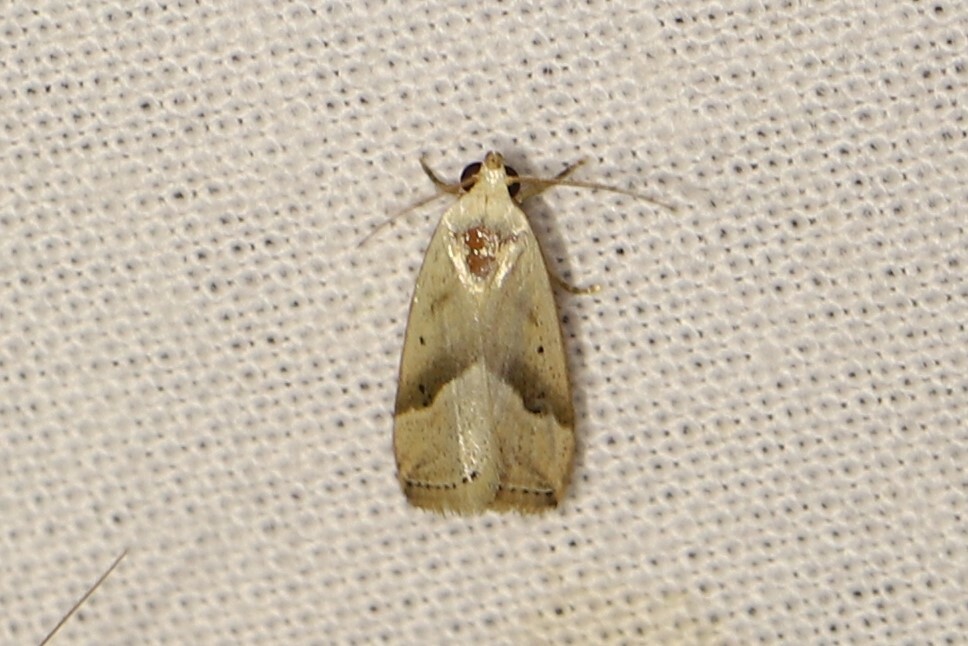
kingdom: Animalia
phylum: Arthropoda
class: Insecta
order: Lepidoptera
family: Noctuidae
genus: Micrathetis
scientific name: Micrathetis dasarada
